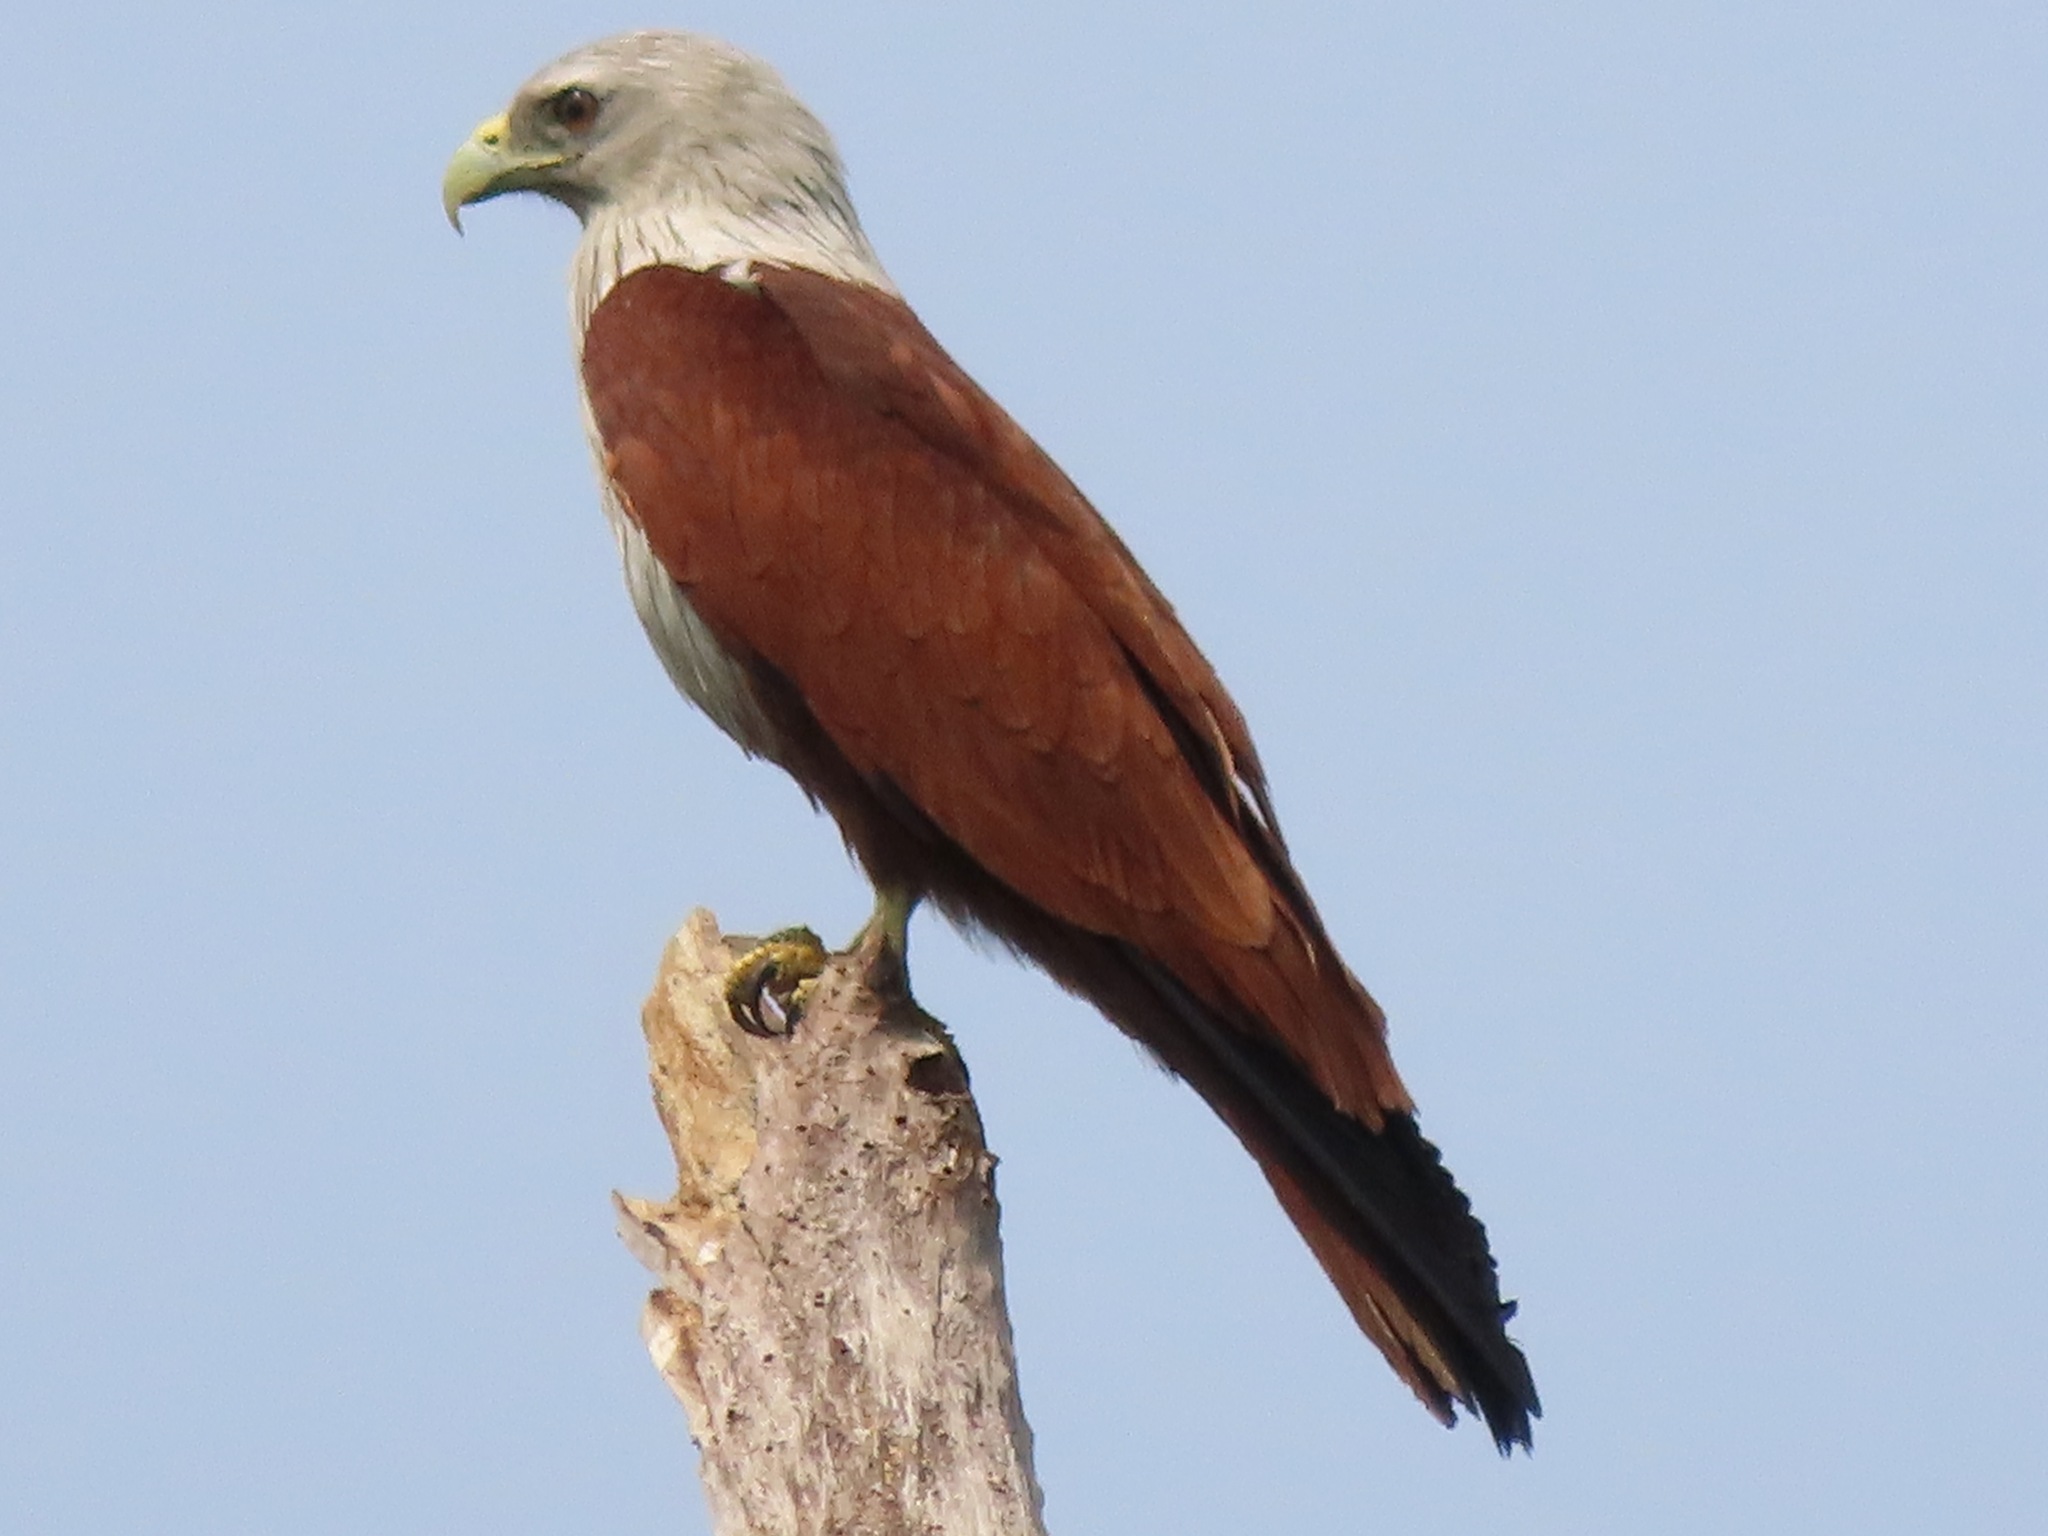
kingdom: Animalia
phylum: Chordata
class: Aves
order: Accipitriformes
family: Accipitridae
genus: Haliastur
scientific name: Haliastur indus
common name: Brahminy kite
